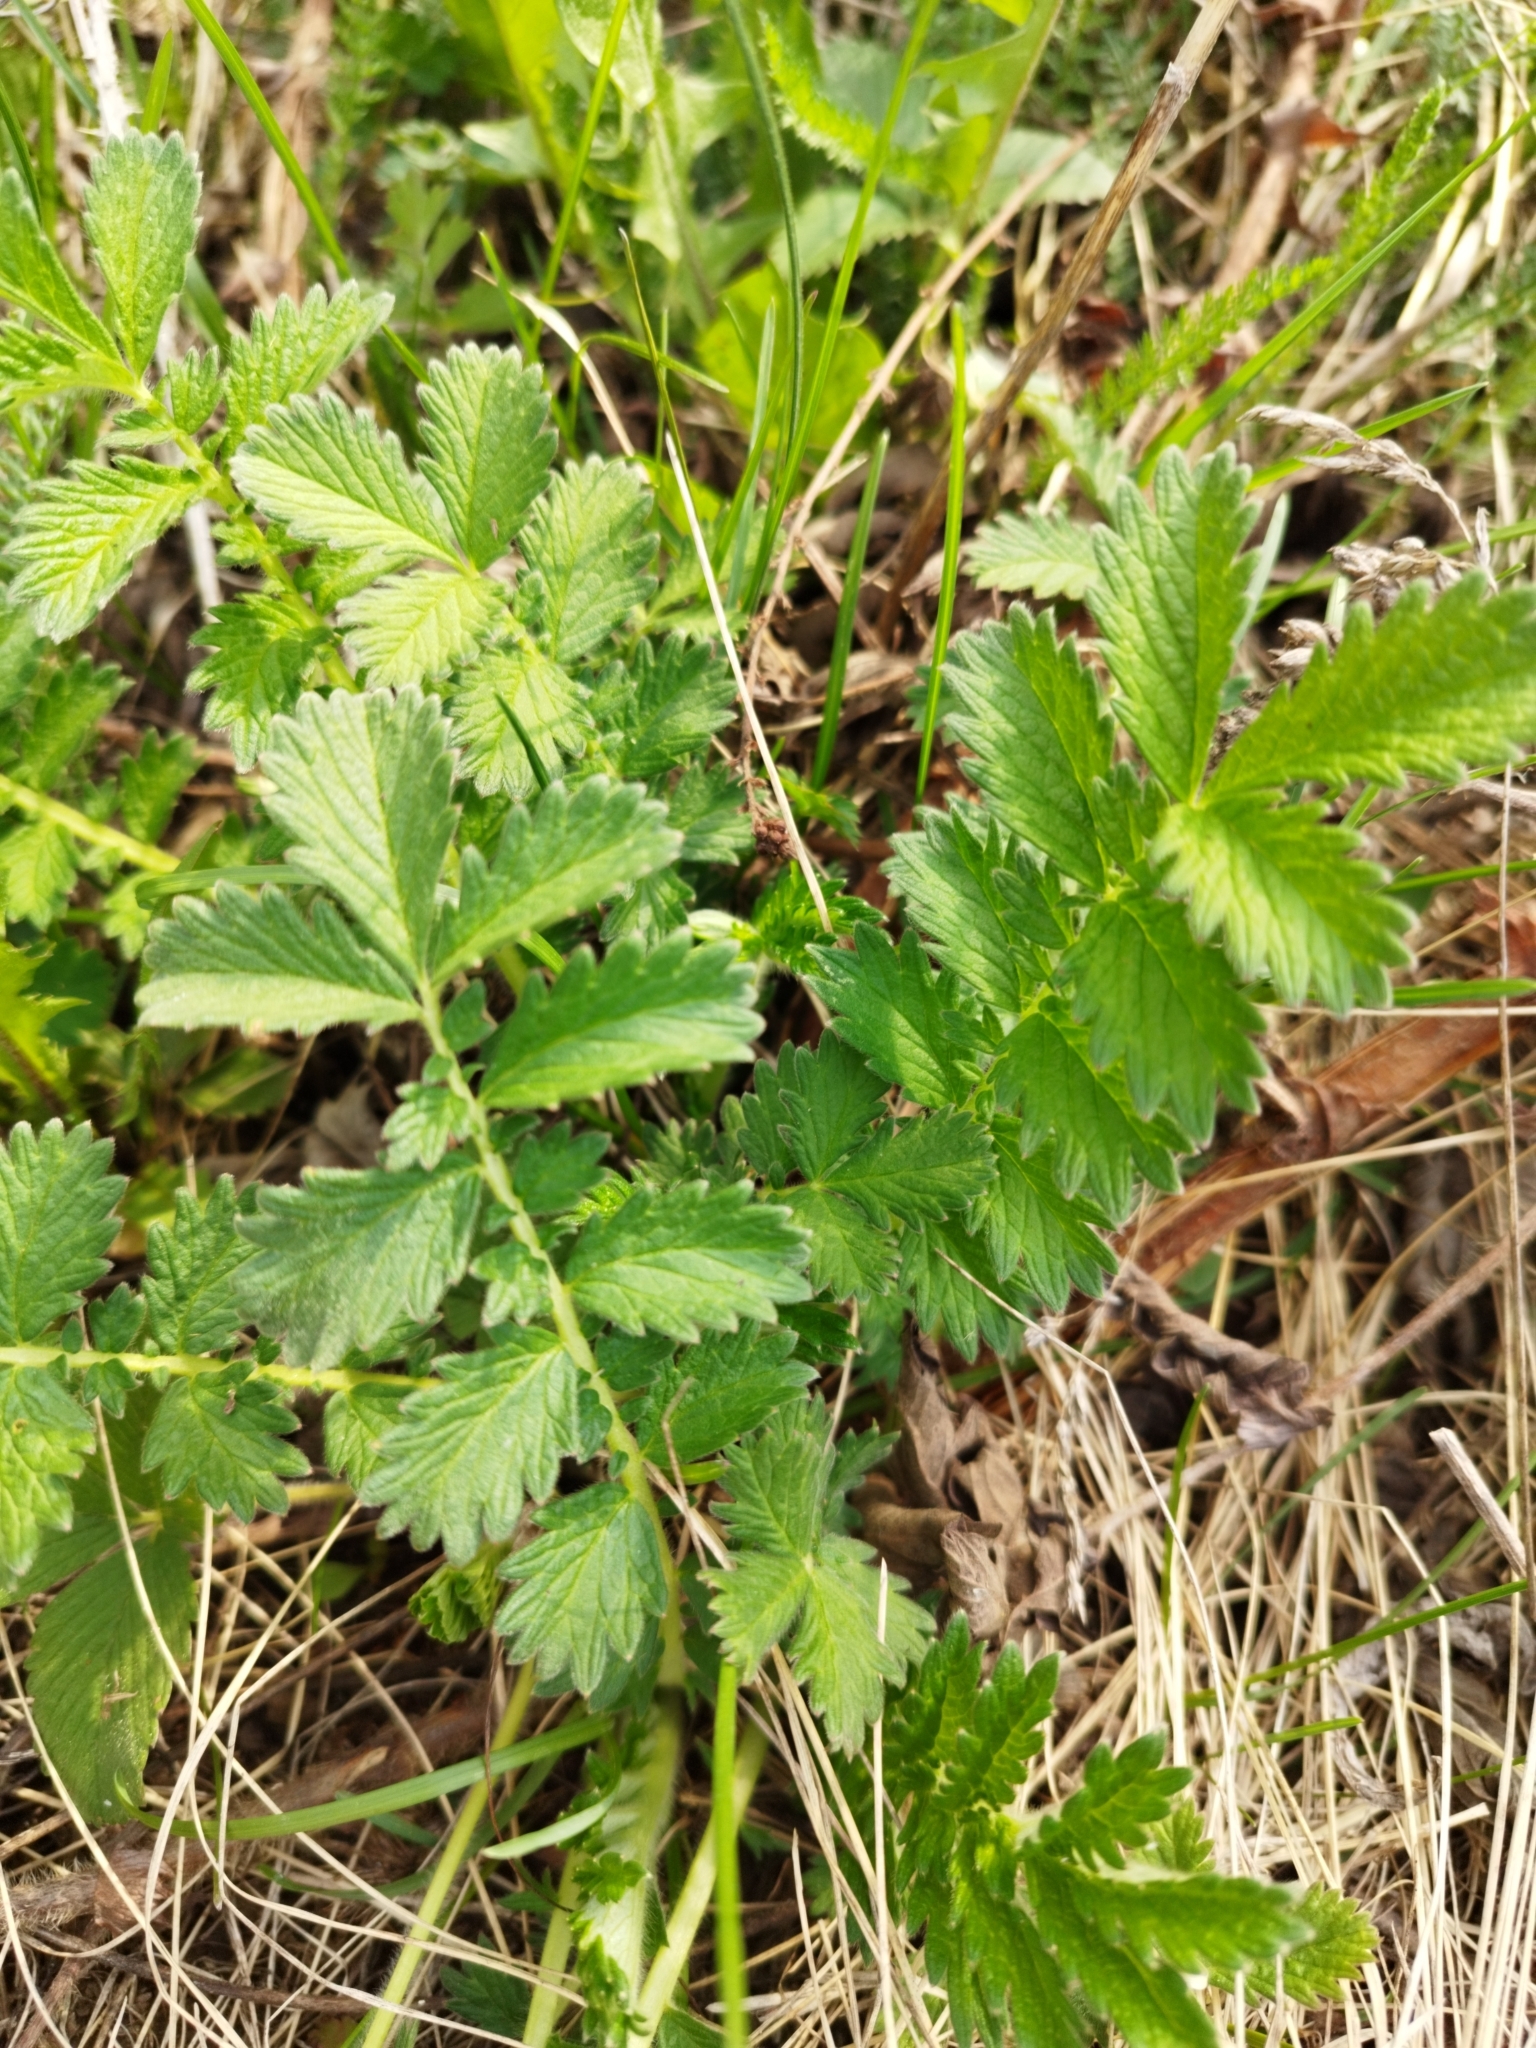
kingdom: Plantae
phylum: Tracheophyta
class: Magnoliopsida
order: Rosales
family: Rosaceae
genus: Agrimonia
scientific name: Agrimonia eupatoria
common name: Agrimony
